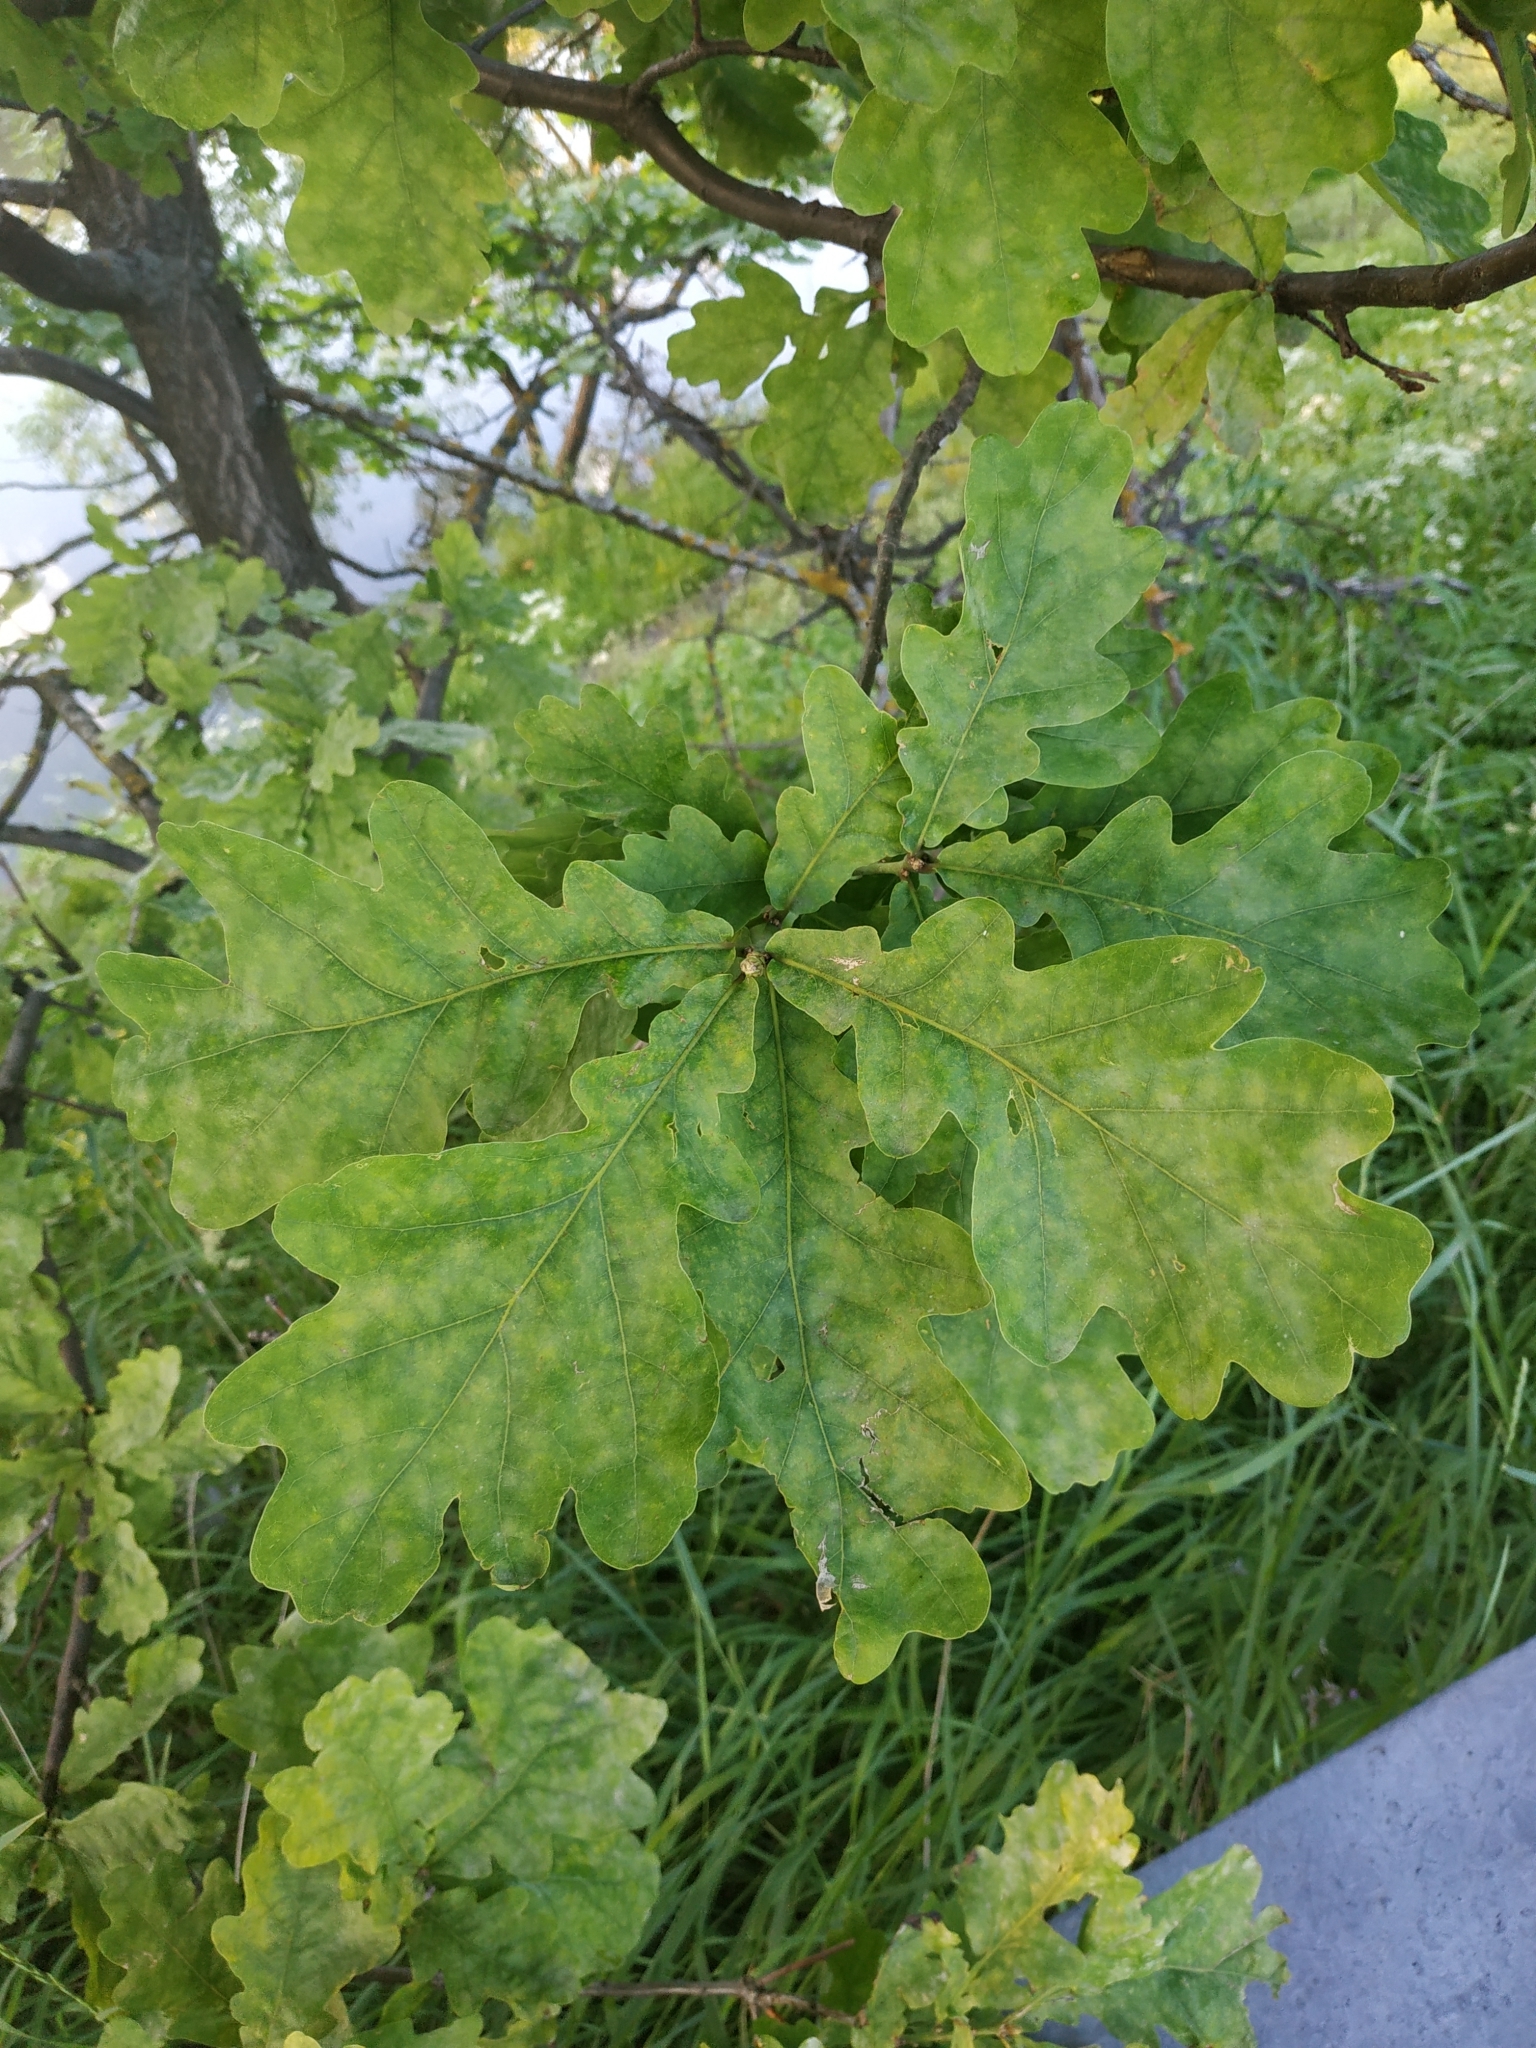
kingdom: Plantae
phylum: Tracheophyta
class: Magnoliopsida
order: Fagales
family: Fagaceae
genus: Quercus
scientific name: Quercus robur
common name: Pedunculate oak
